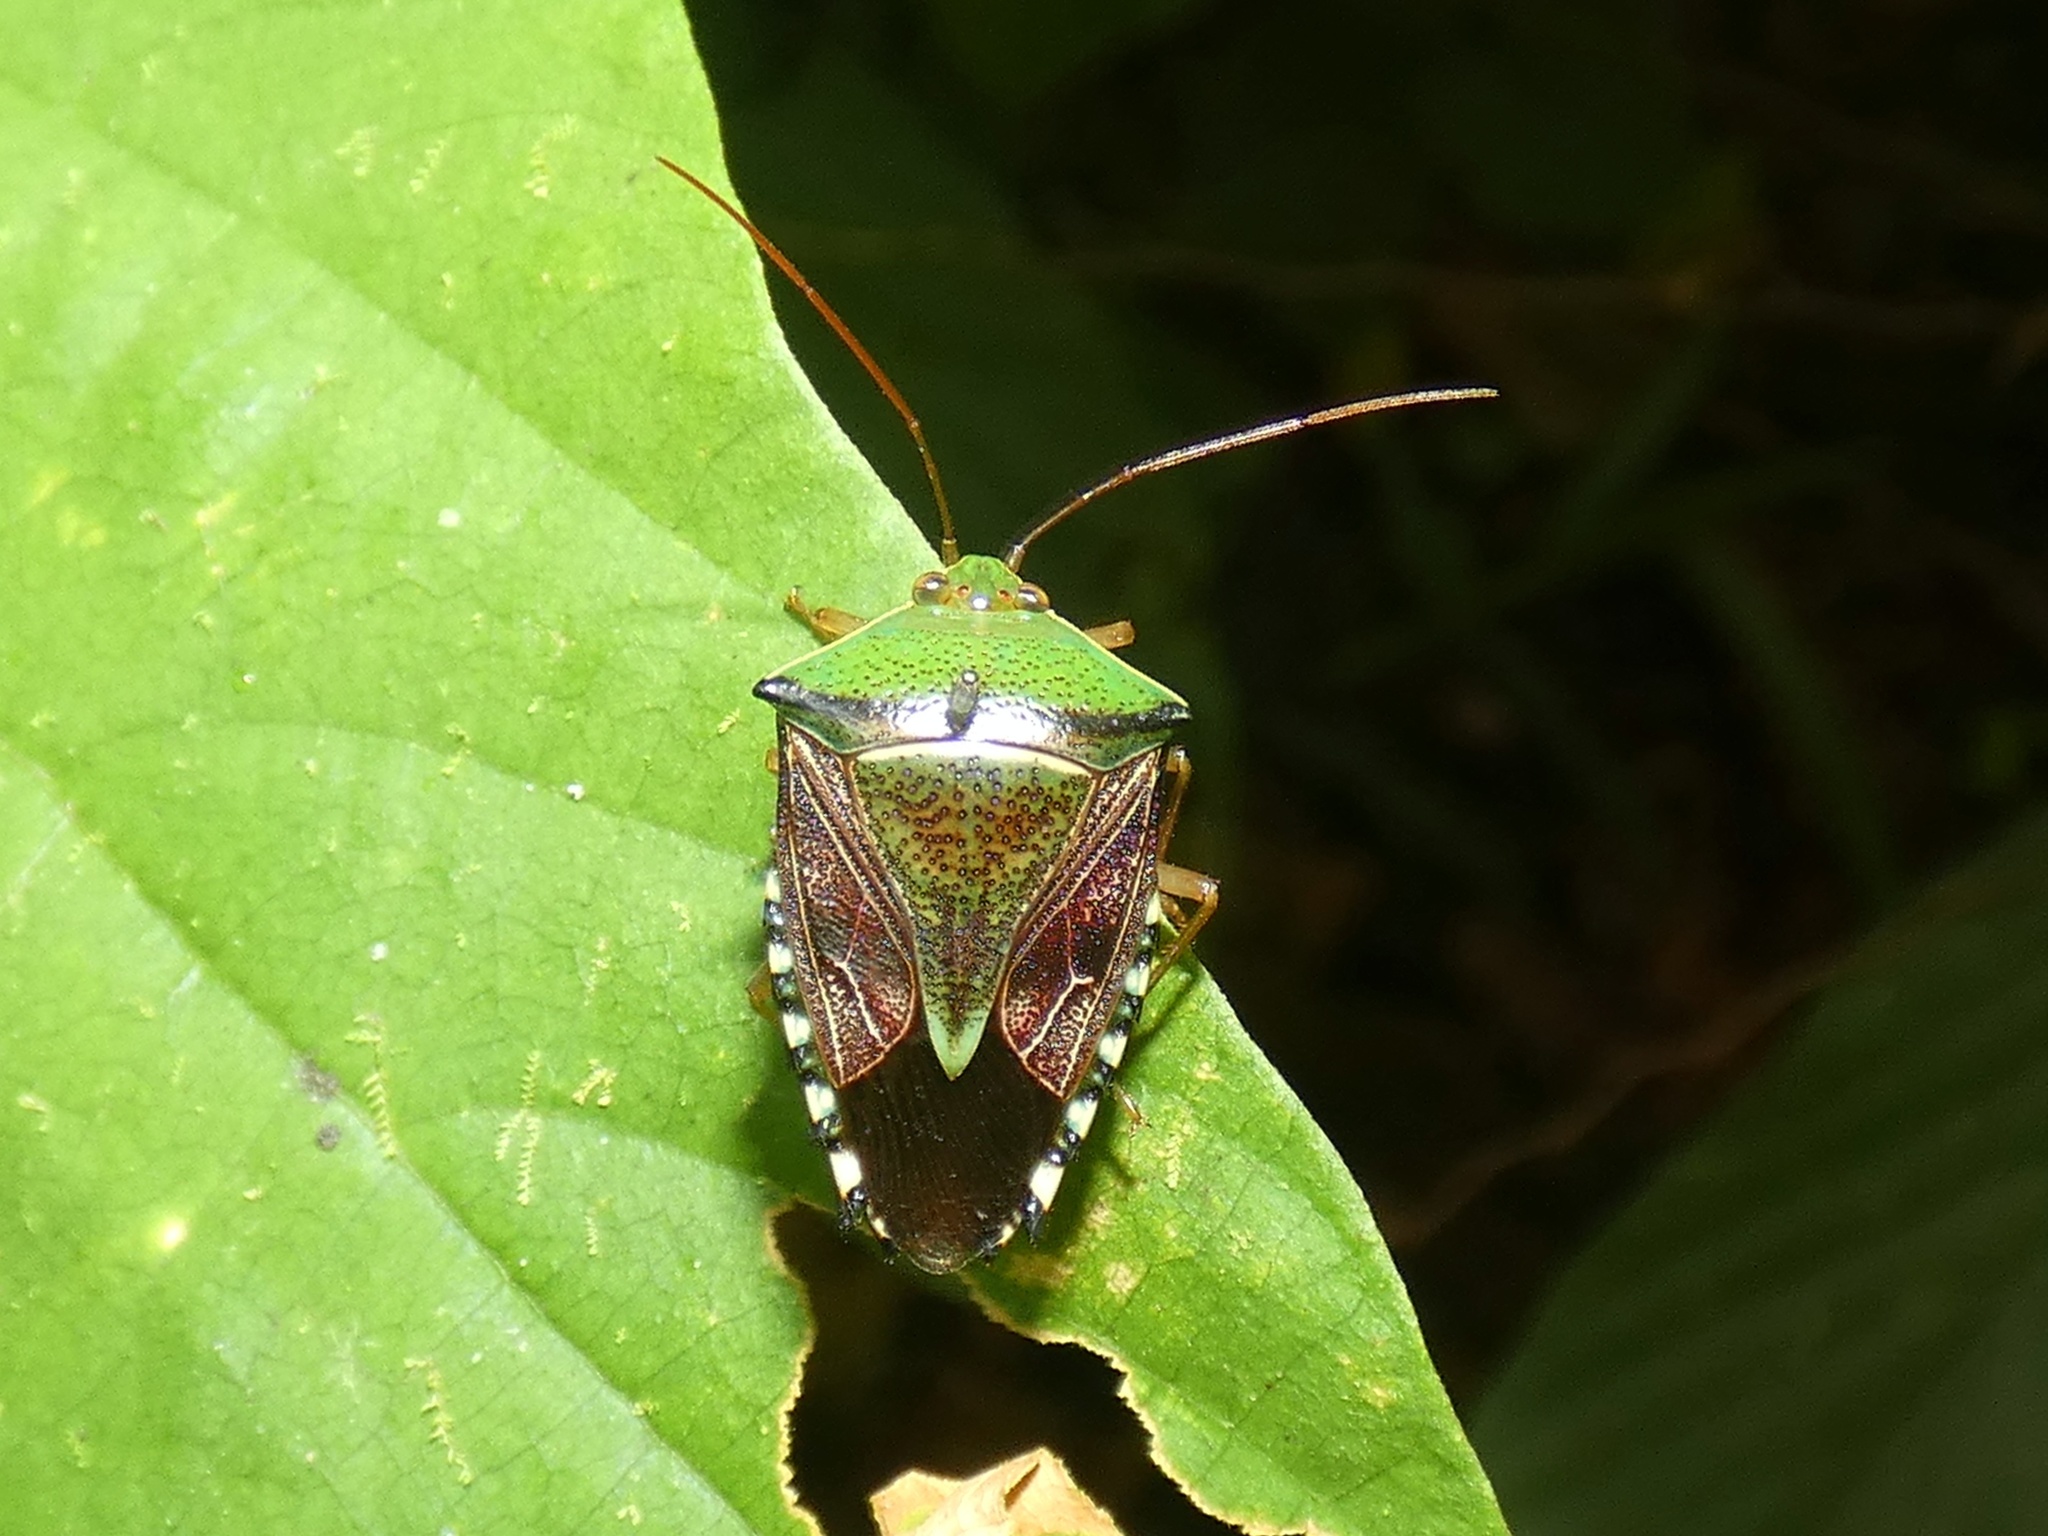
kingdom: Animalia
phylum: Arthropoda
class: Insecta
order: Hemiptera
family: Pentatomidae
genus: Hypoxys
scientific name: Hypoxys eburatulus
